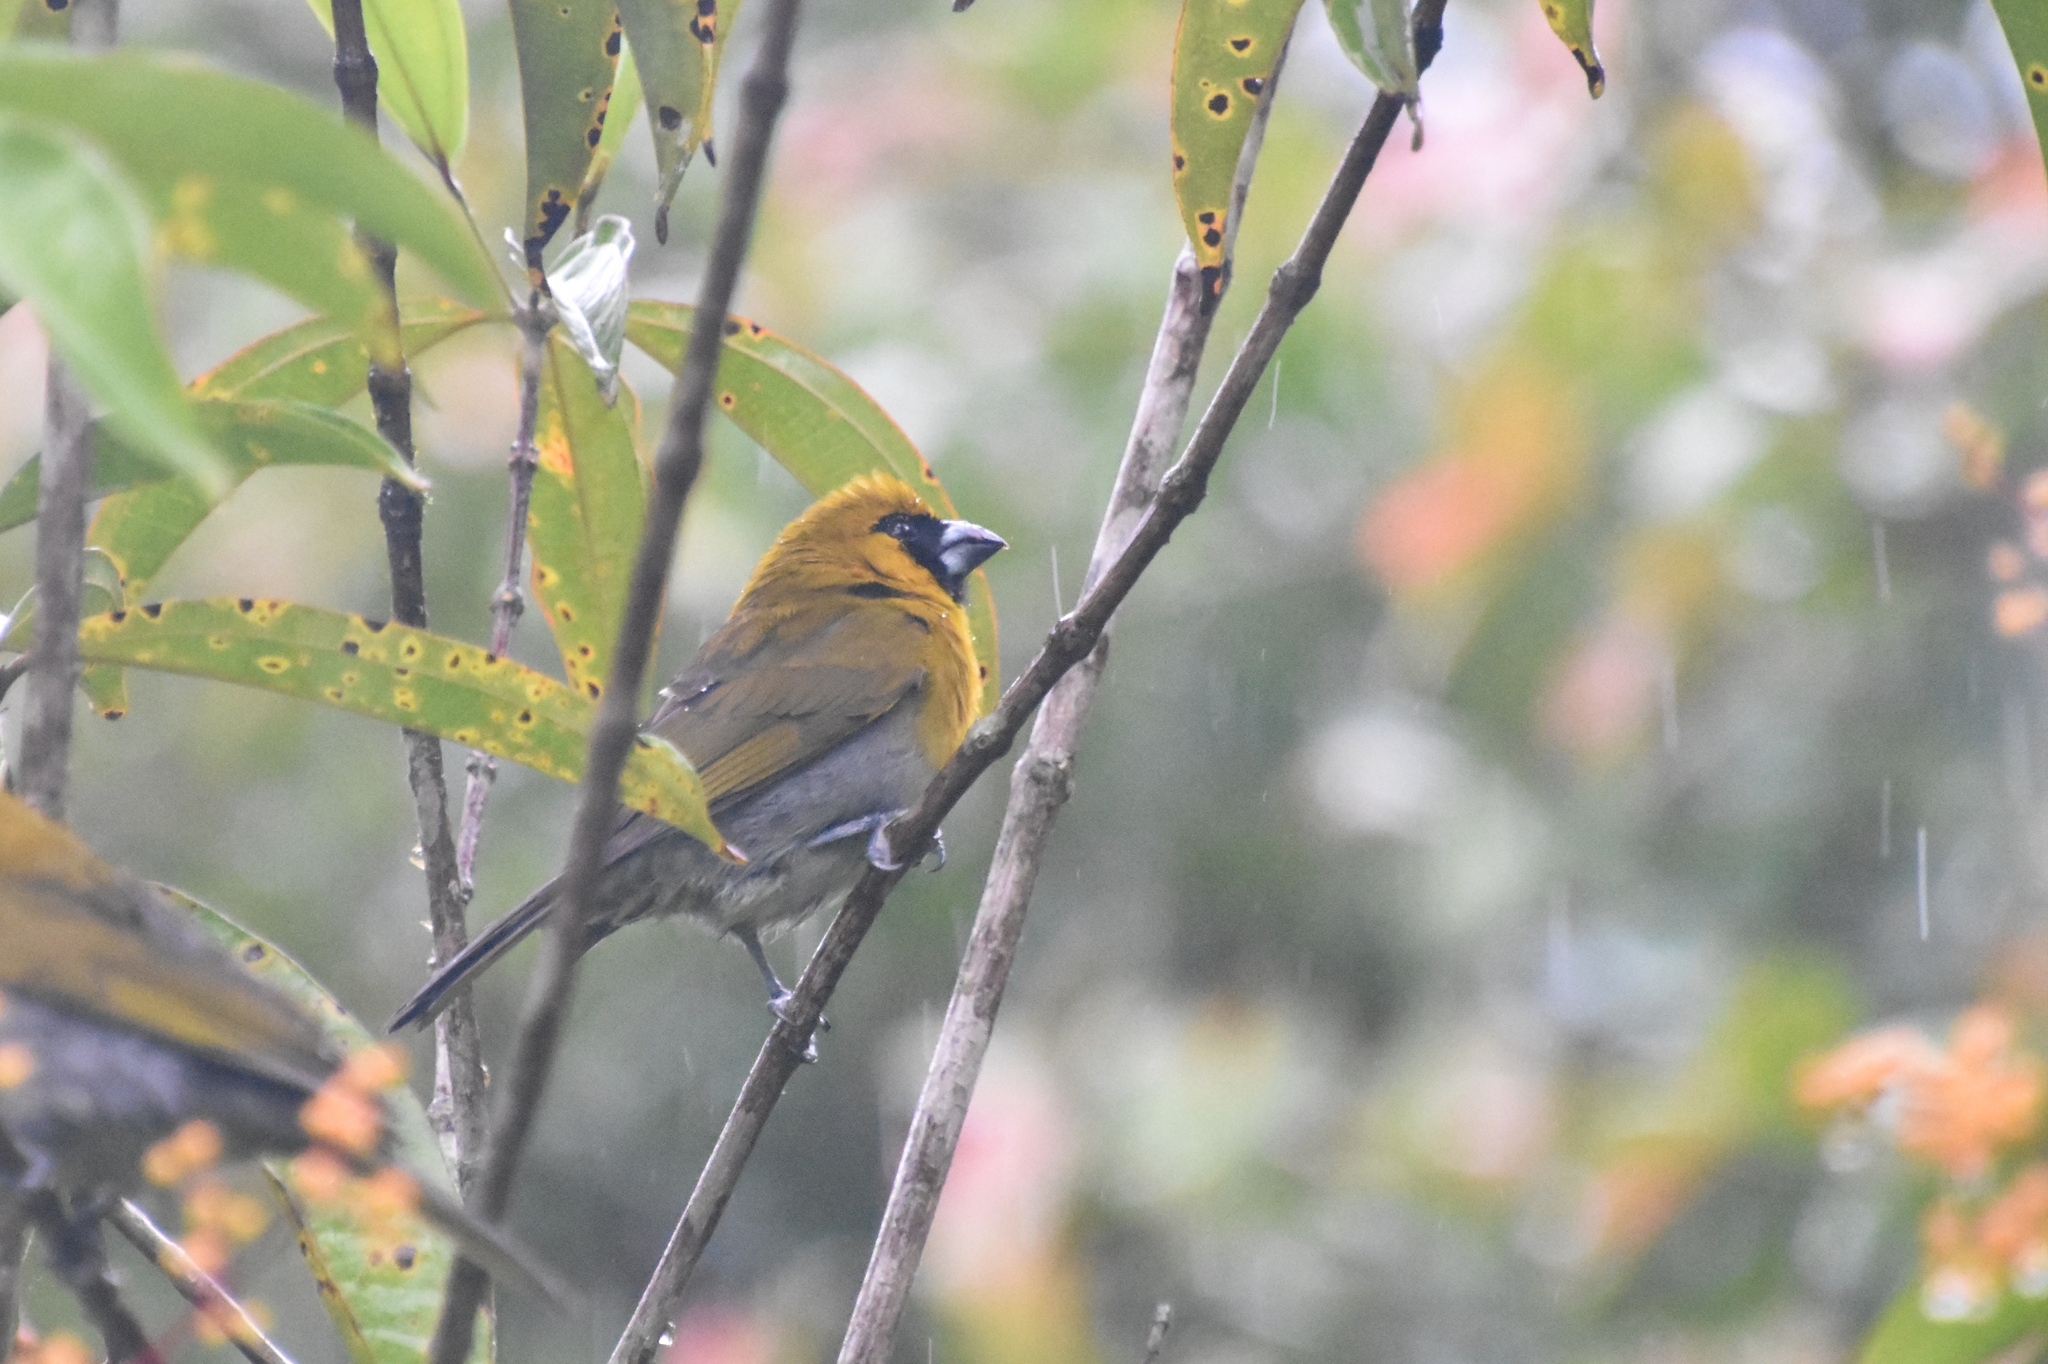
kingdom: Animalia
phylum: Chordata
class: Aves
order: Passeriformes
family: Cardinalidae
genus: Caryothraustes
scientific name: Caryothraustes poliogaster
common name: Black-faced grosbeak
